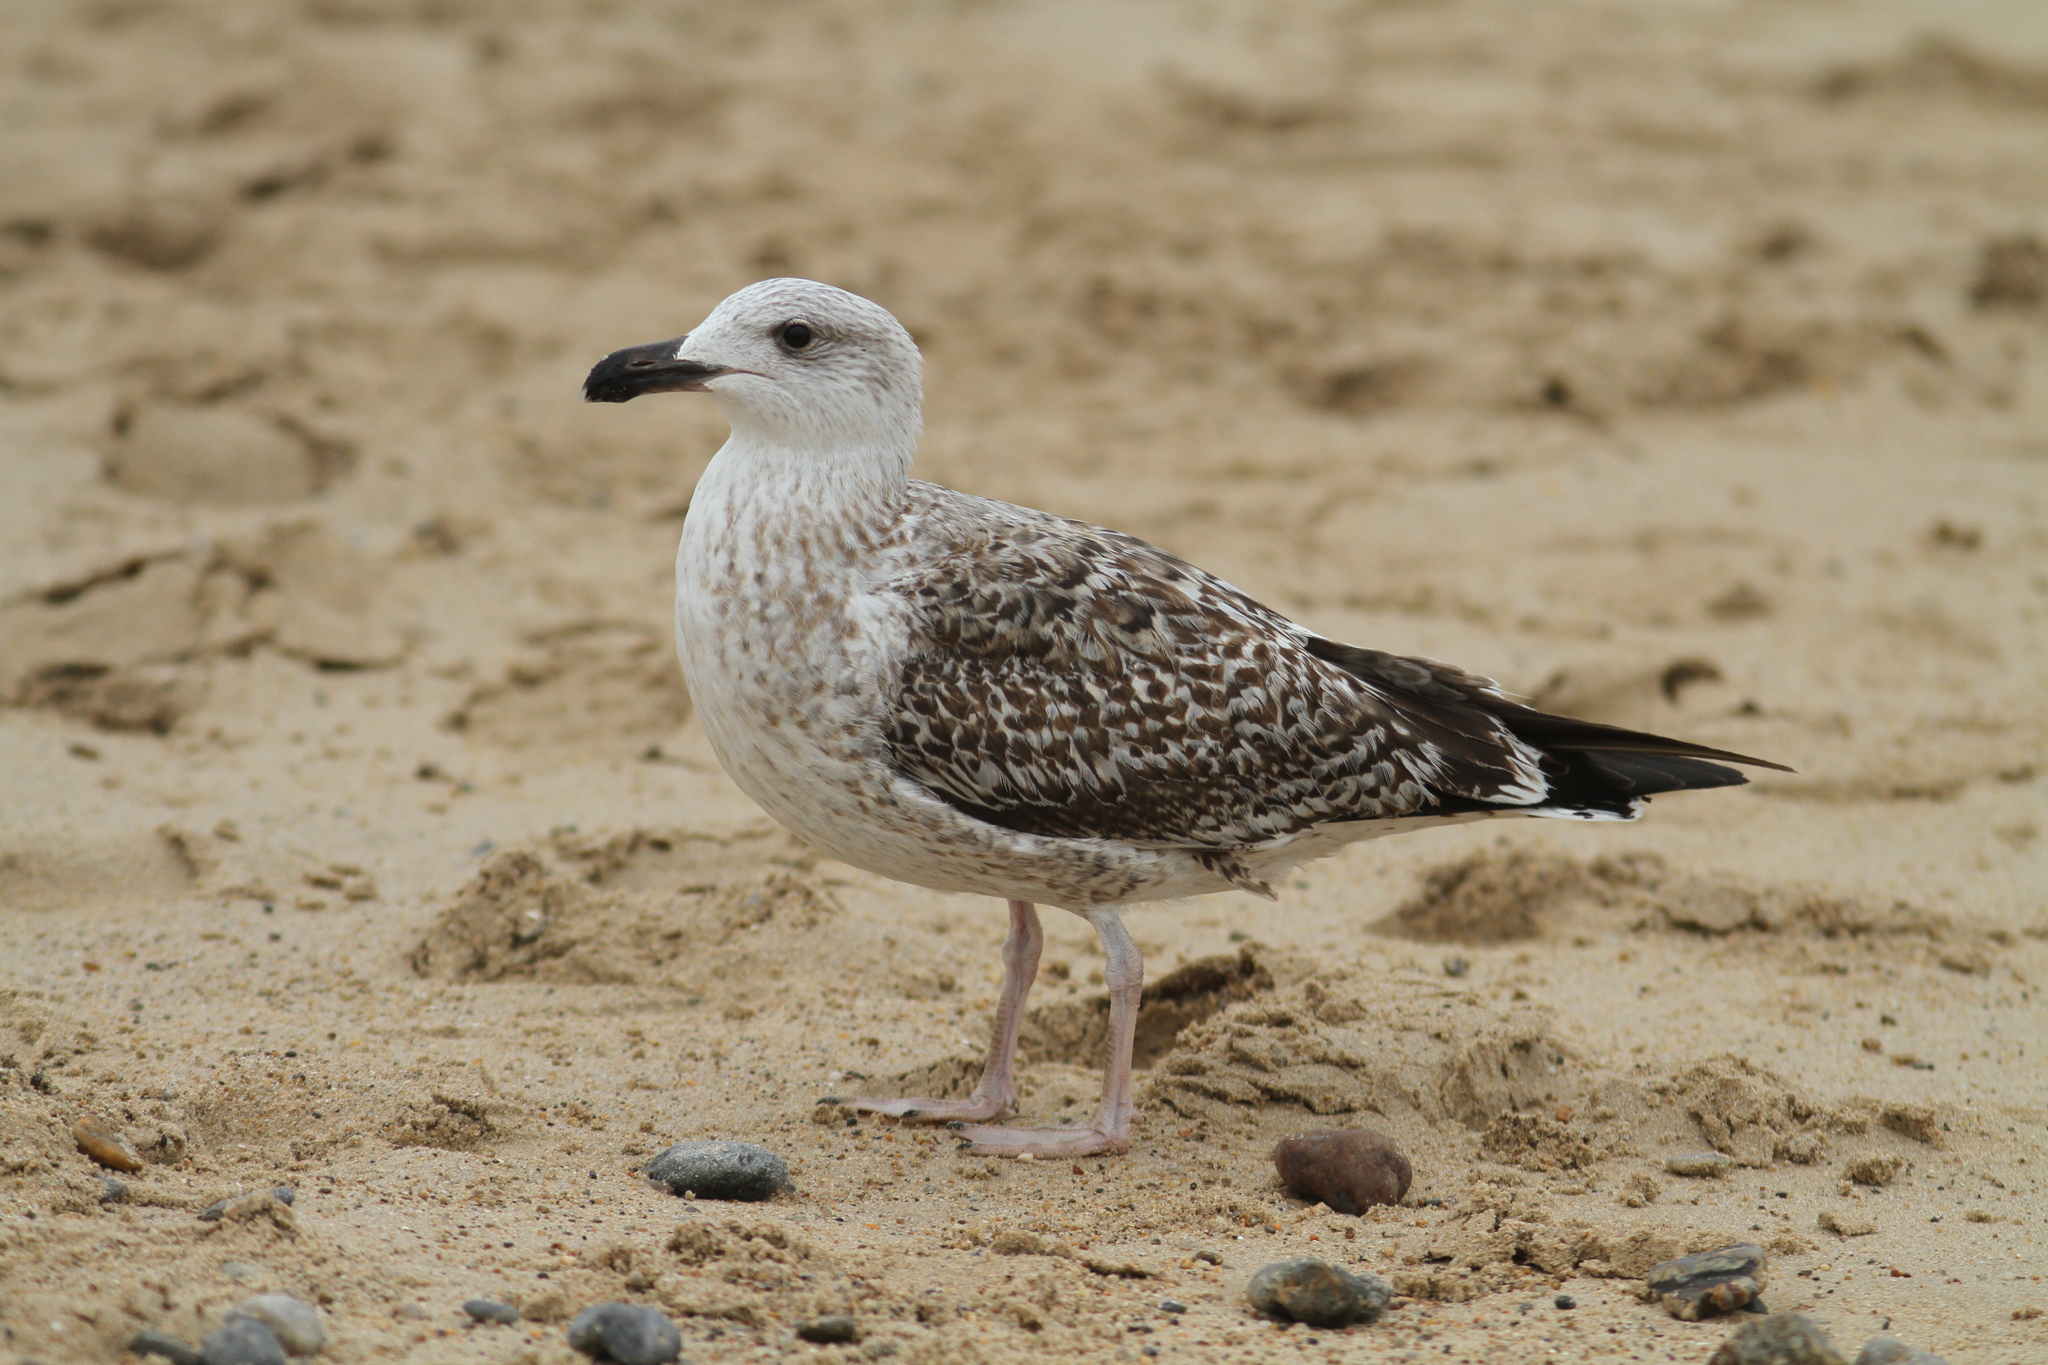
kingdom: Animalia
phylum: Chordata
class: Aves
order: Charadriiformes
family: Laridae
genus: Larus
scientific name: Larus marinus
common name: Great black-backed gull
